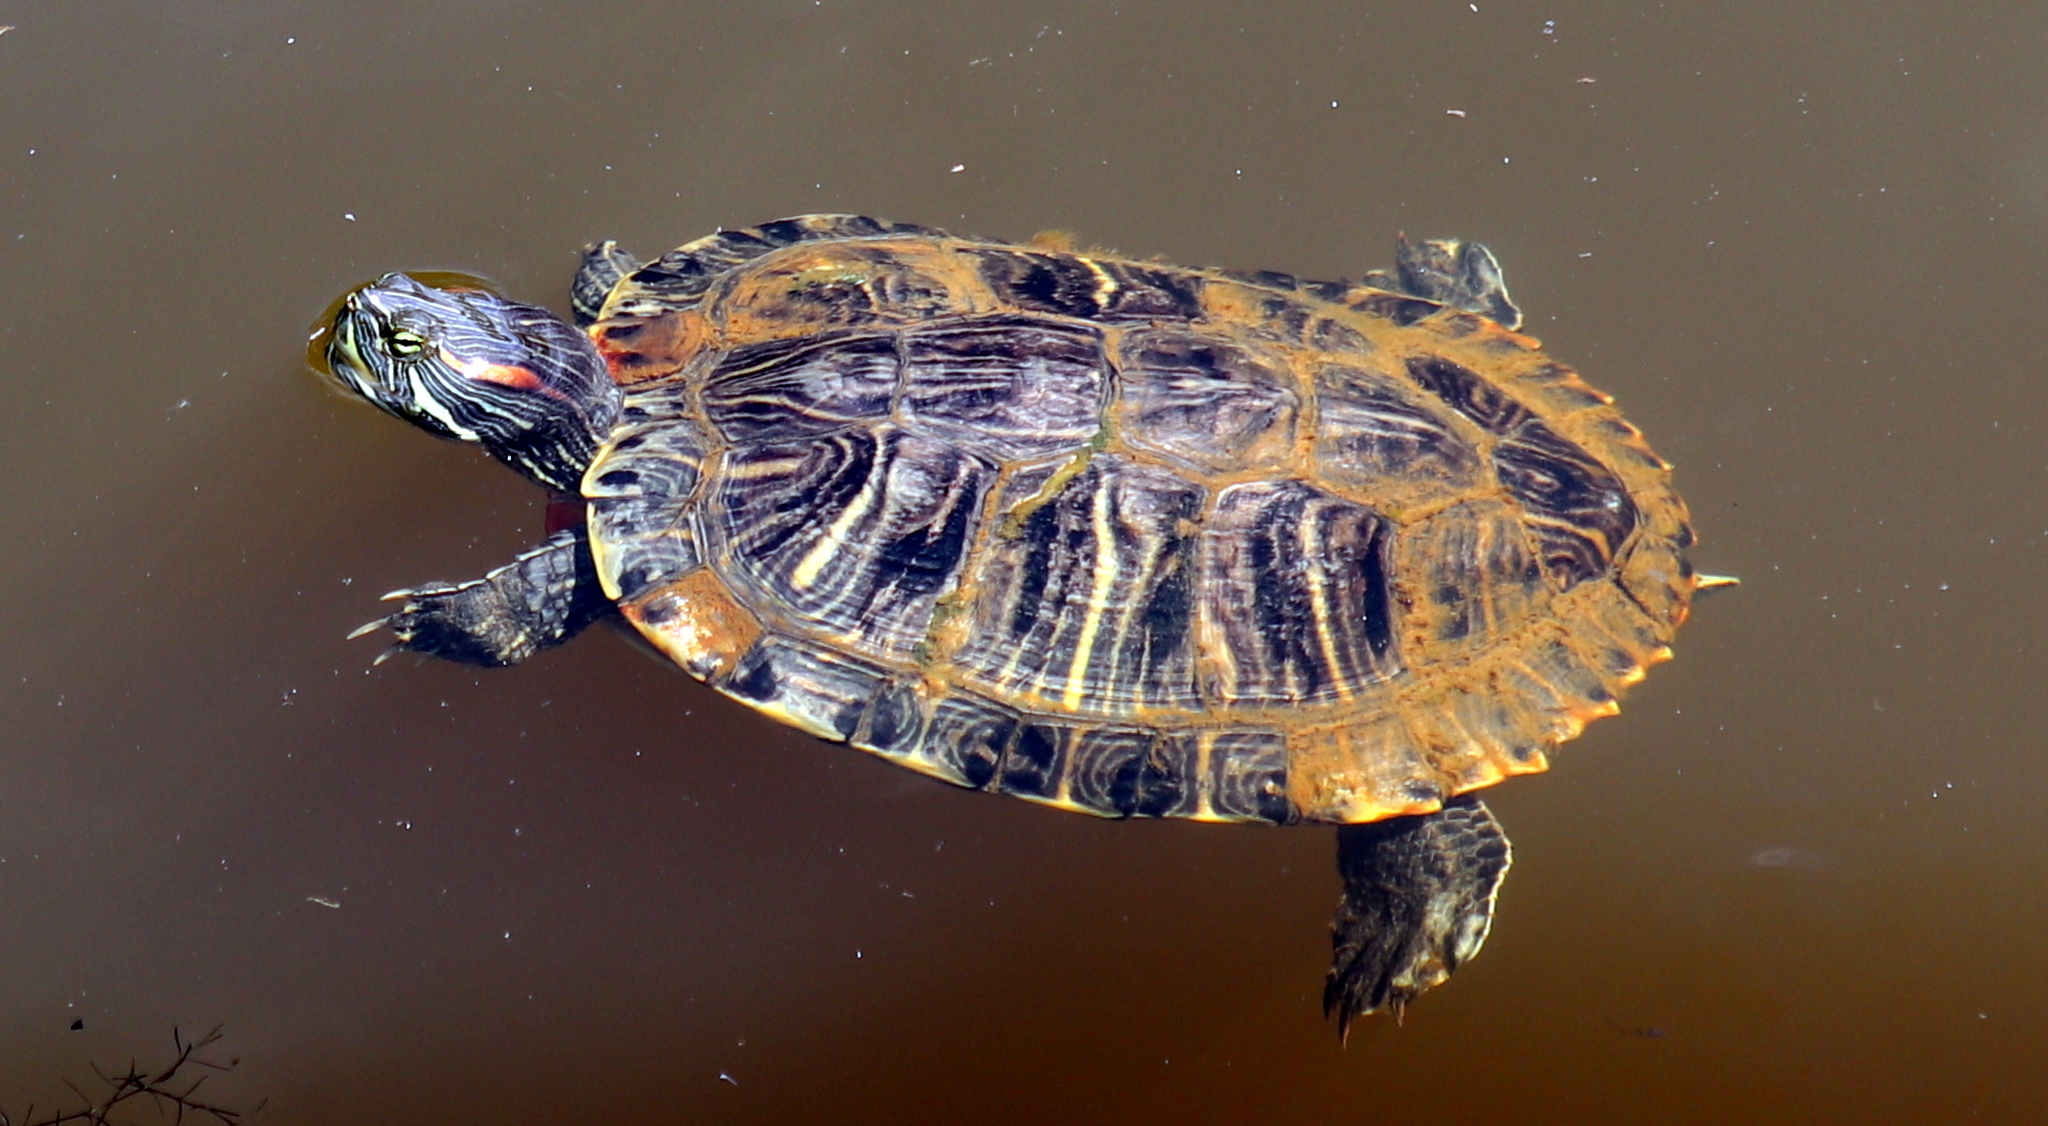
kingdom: Animalia
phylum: Chordata
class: Testudines
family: Emydidae
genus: Trachemys
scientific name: Trachemys scripta
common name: Slider
